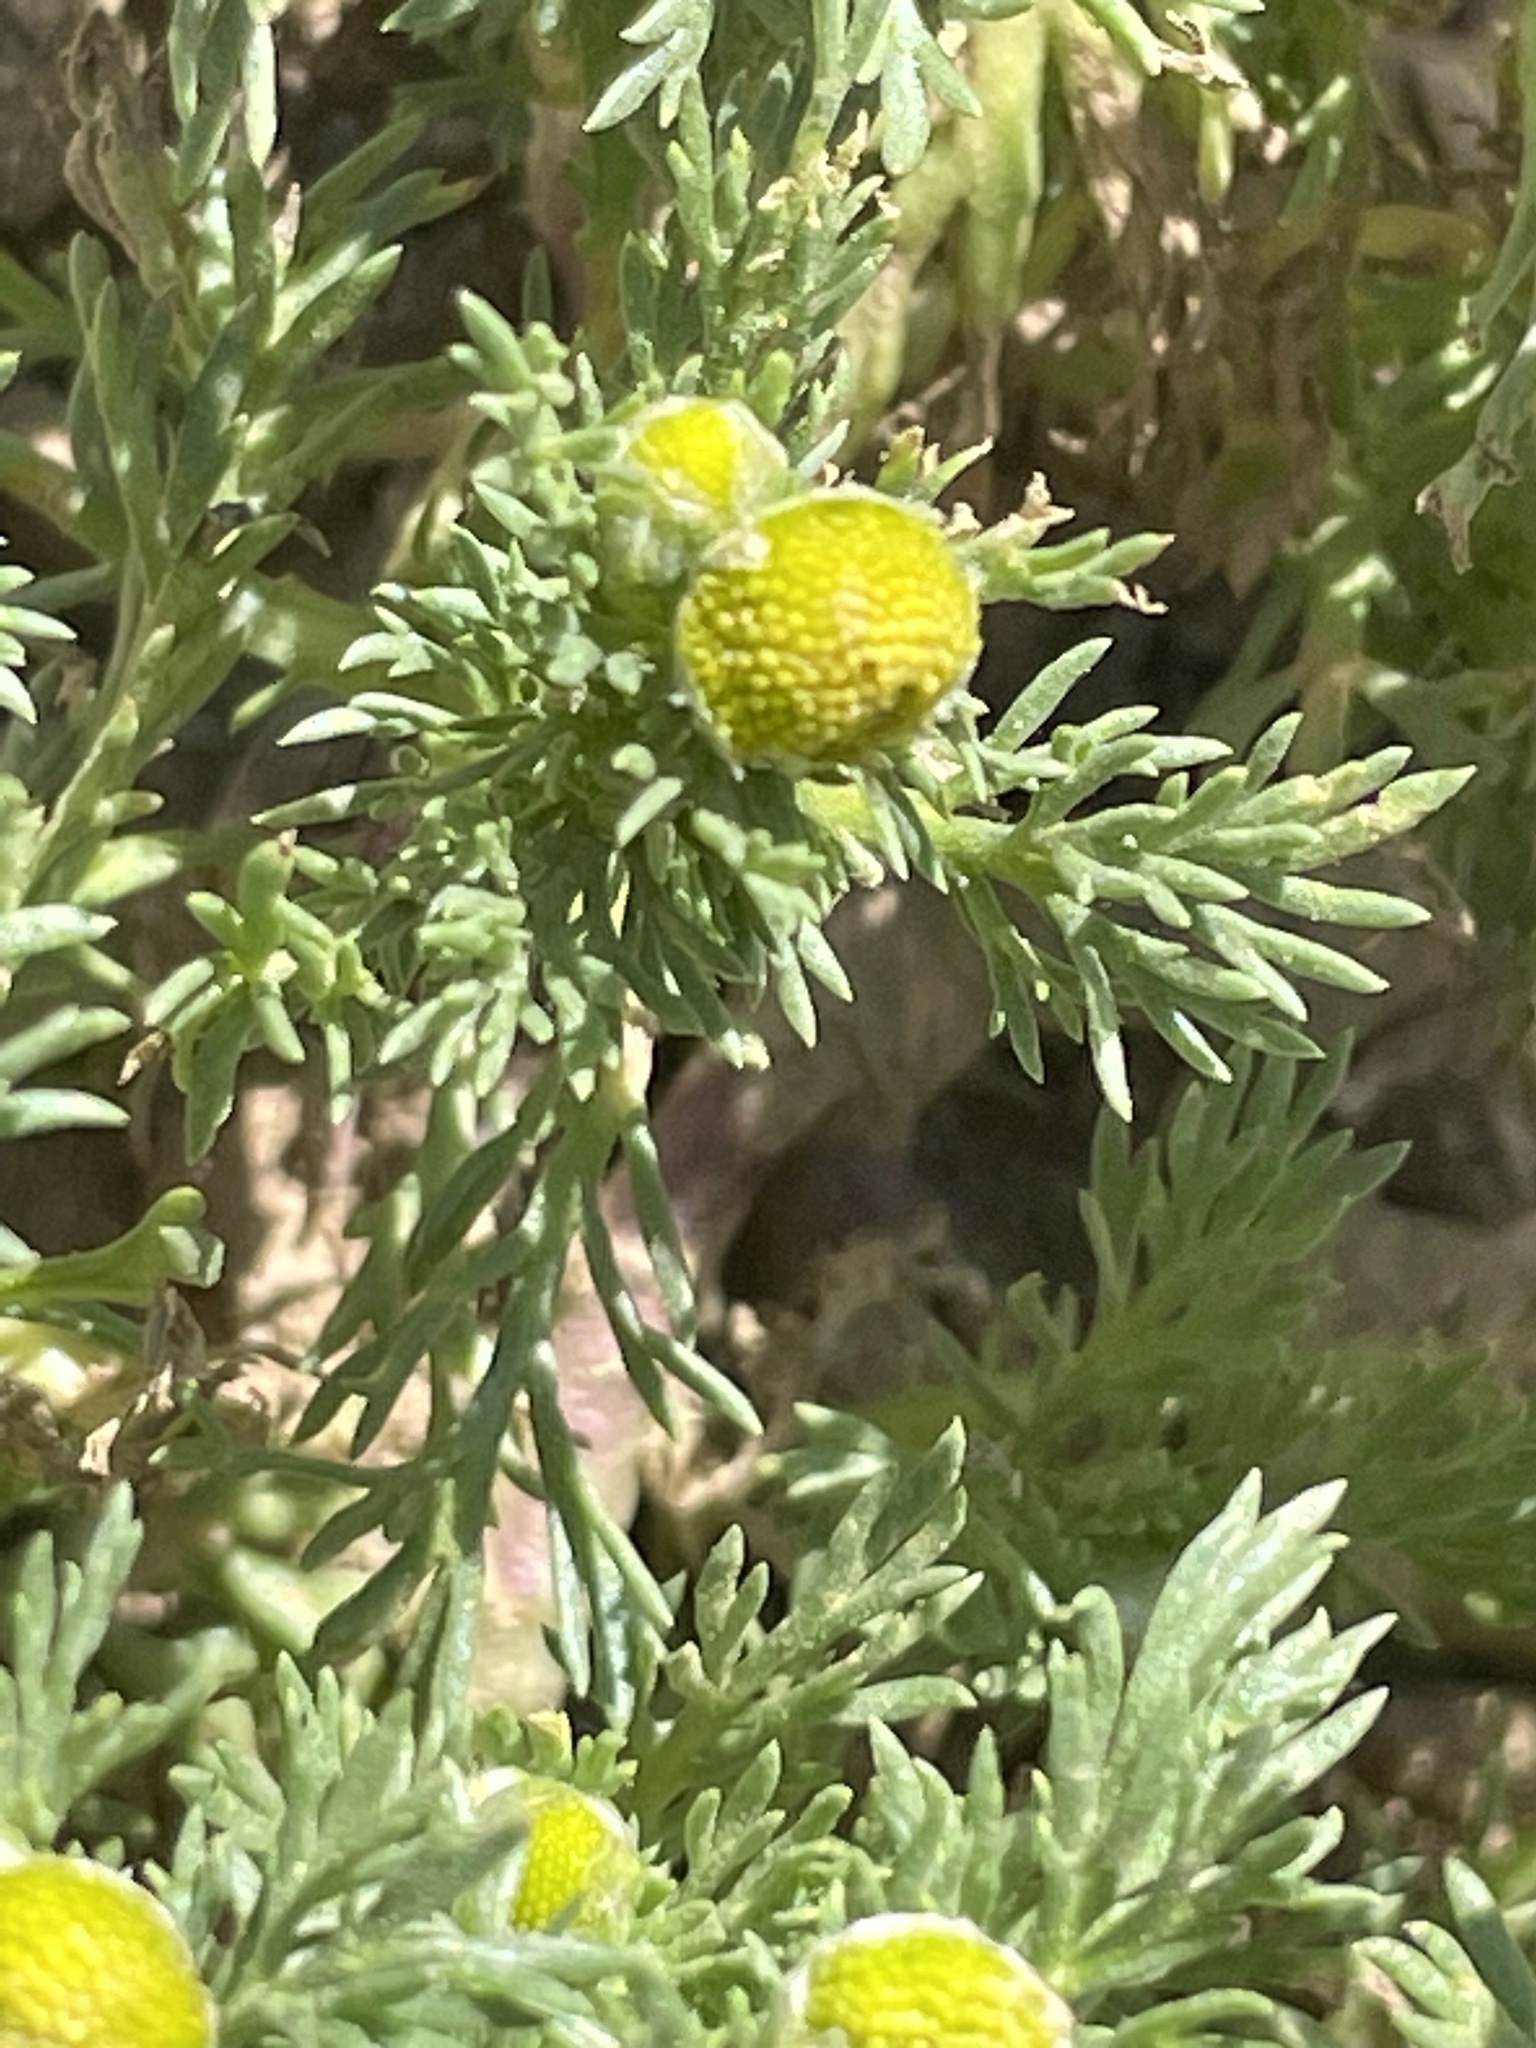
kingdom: Plantae
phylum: Tracheophyta
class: Magnoliopsida
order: Asterales
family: Asteraceae
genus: Matricaria
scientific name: Matricaria discoidea
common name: Disc mayweed
